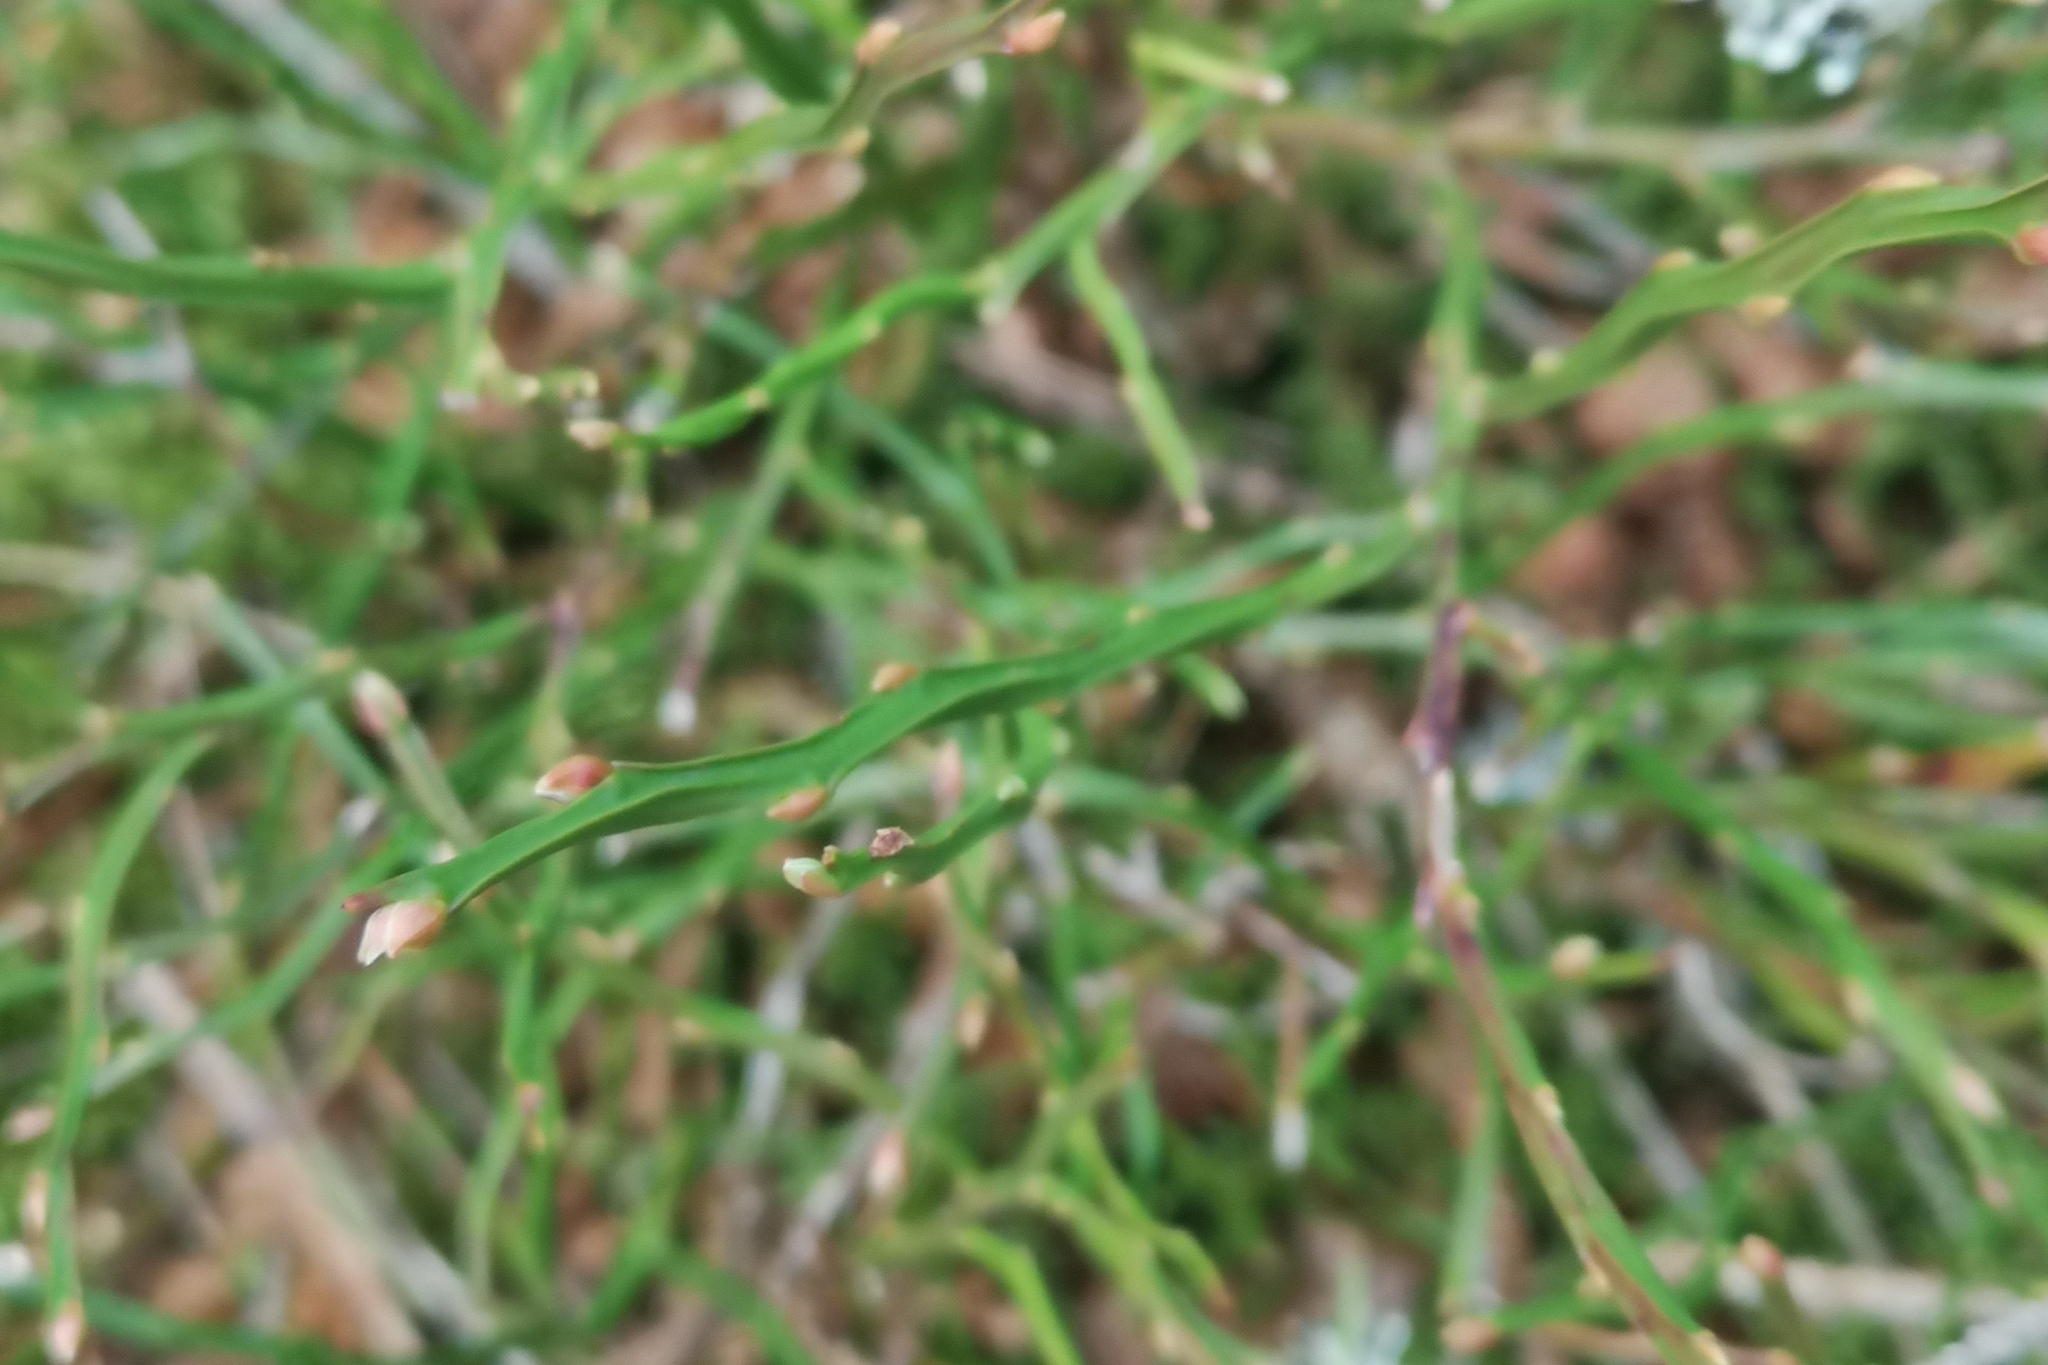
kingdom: Plantae
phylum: Tracheophyta
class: Magnoliopsida
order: Ericales
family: Ericaceae
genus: Vaccinium
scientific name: Vaccinium myrtillus
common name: Bilberry
